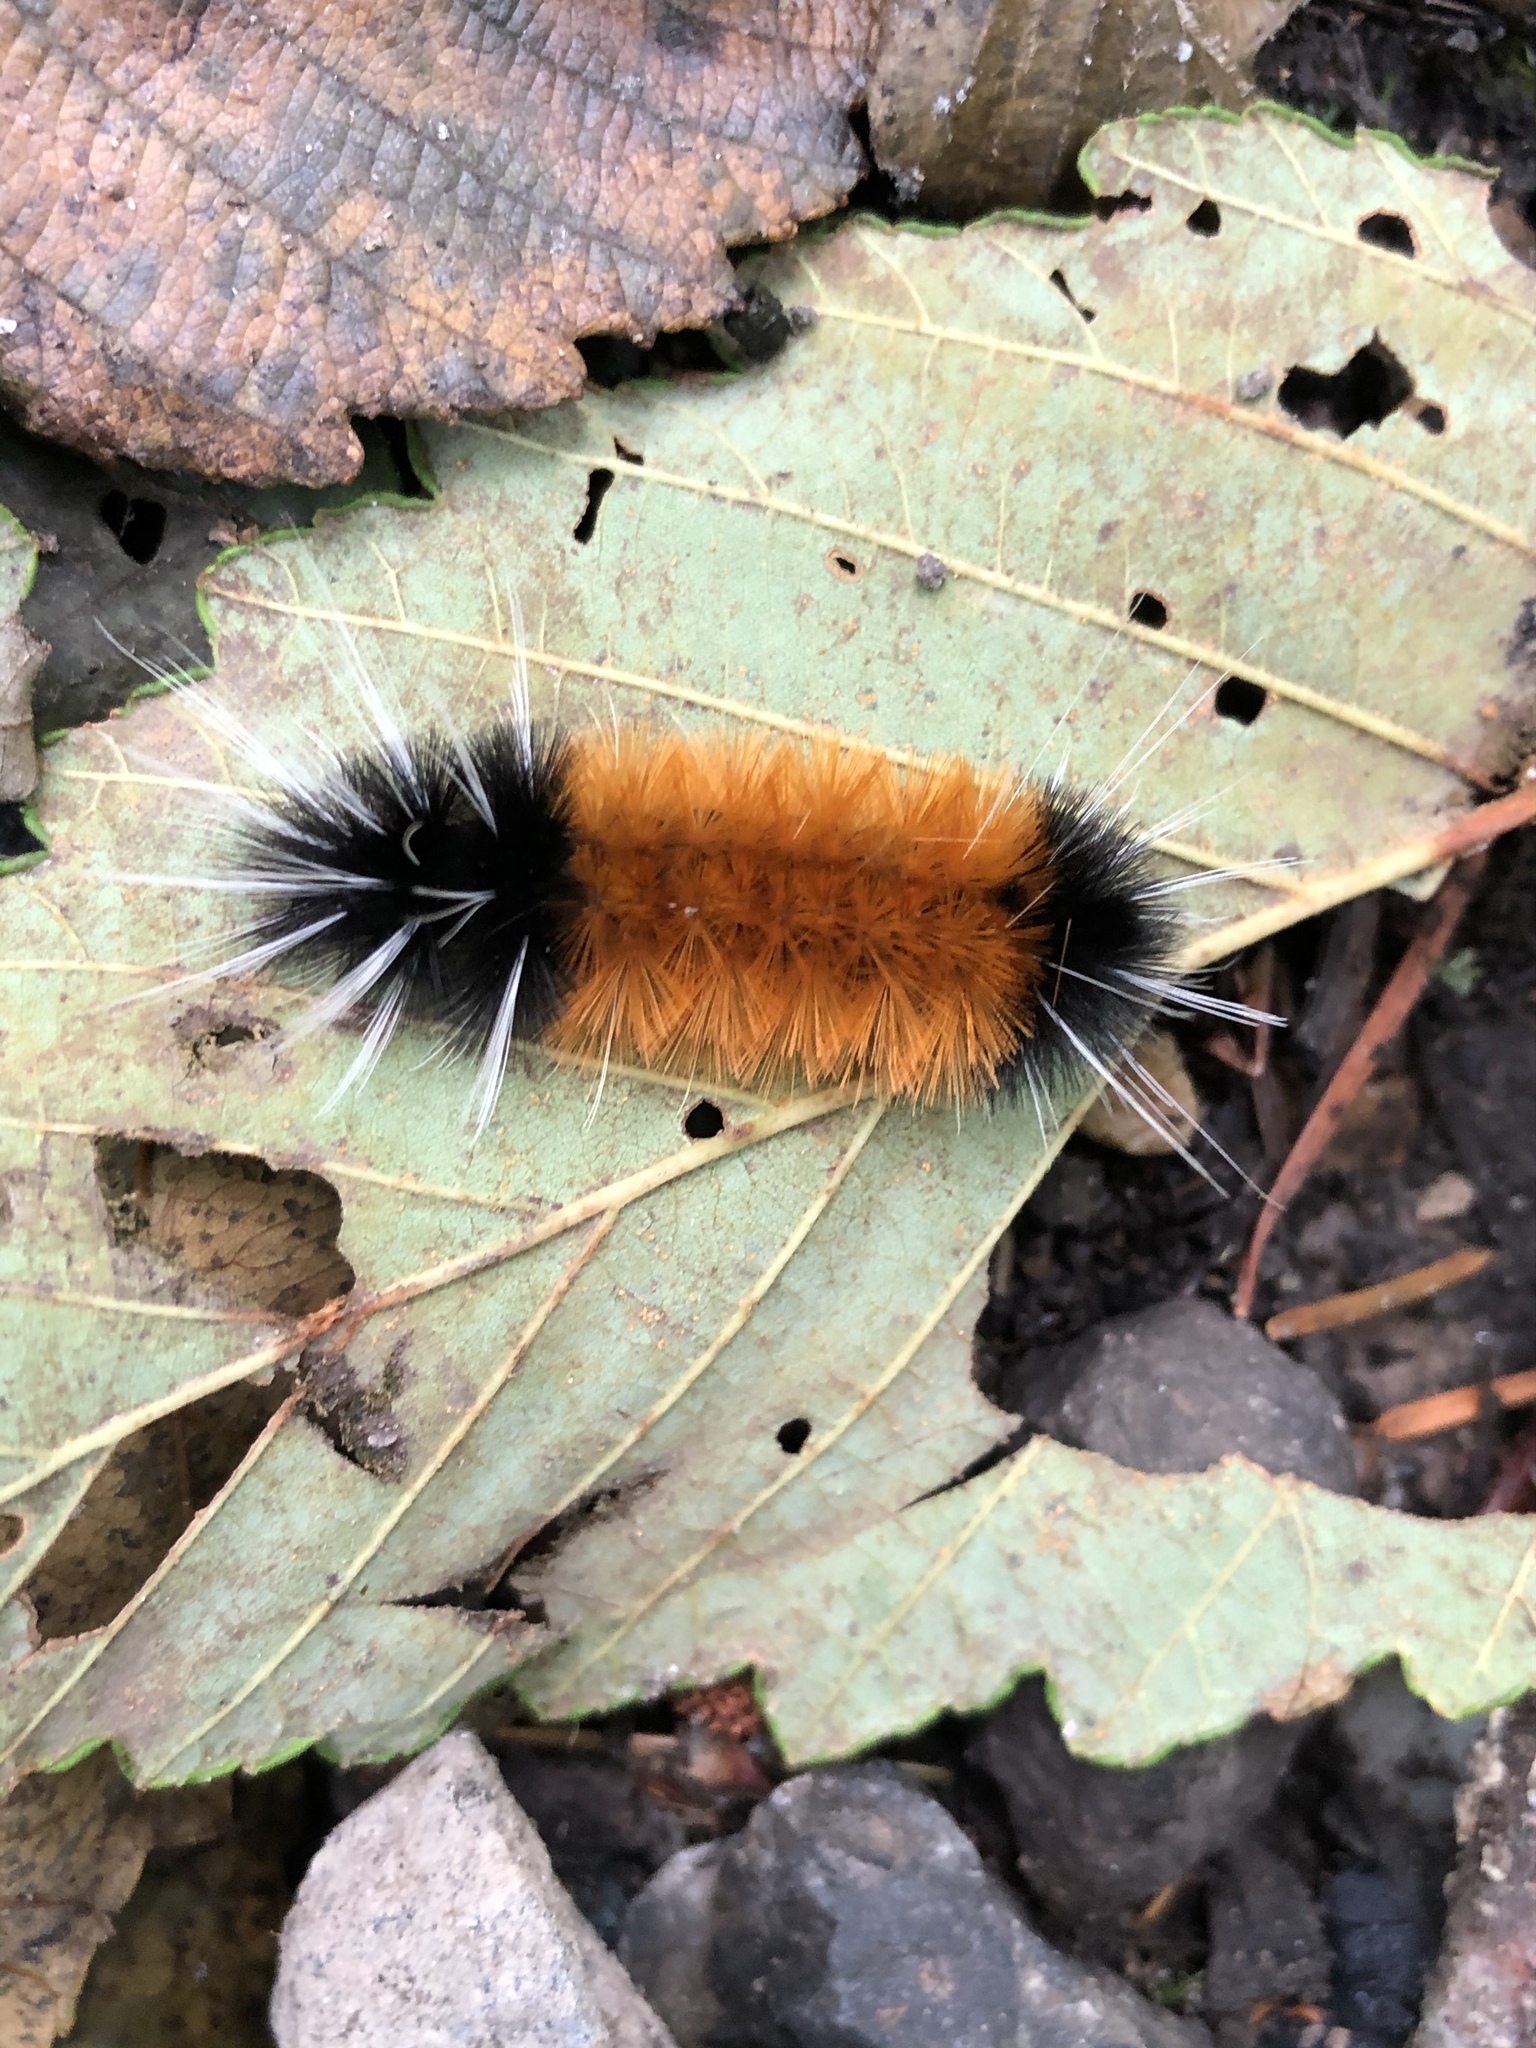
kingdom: Animalia
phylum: Arthropoda
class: Insecta
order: Lepidoptera
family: Erebidae
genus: Lophocampa
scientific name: Lophocampa maculata
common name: Spotted tussock moth
